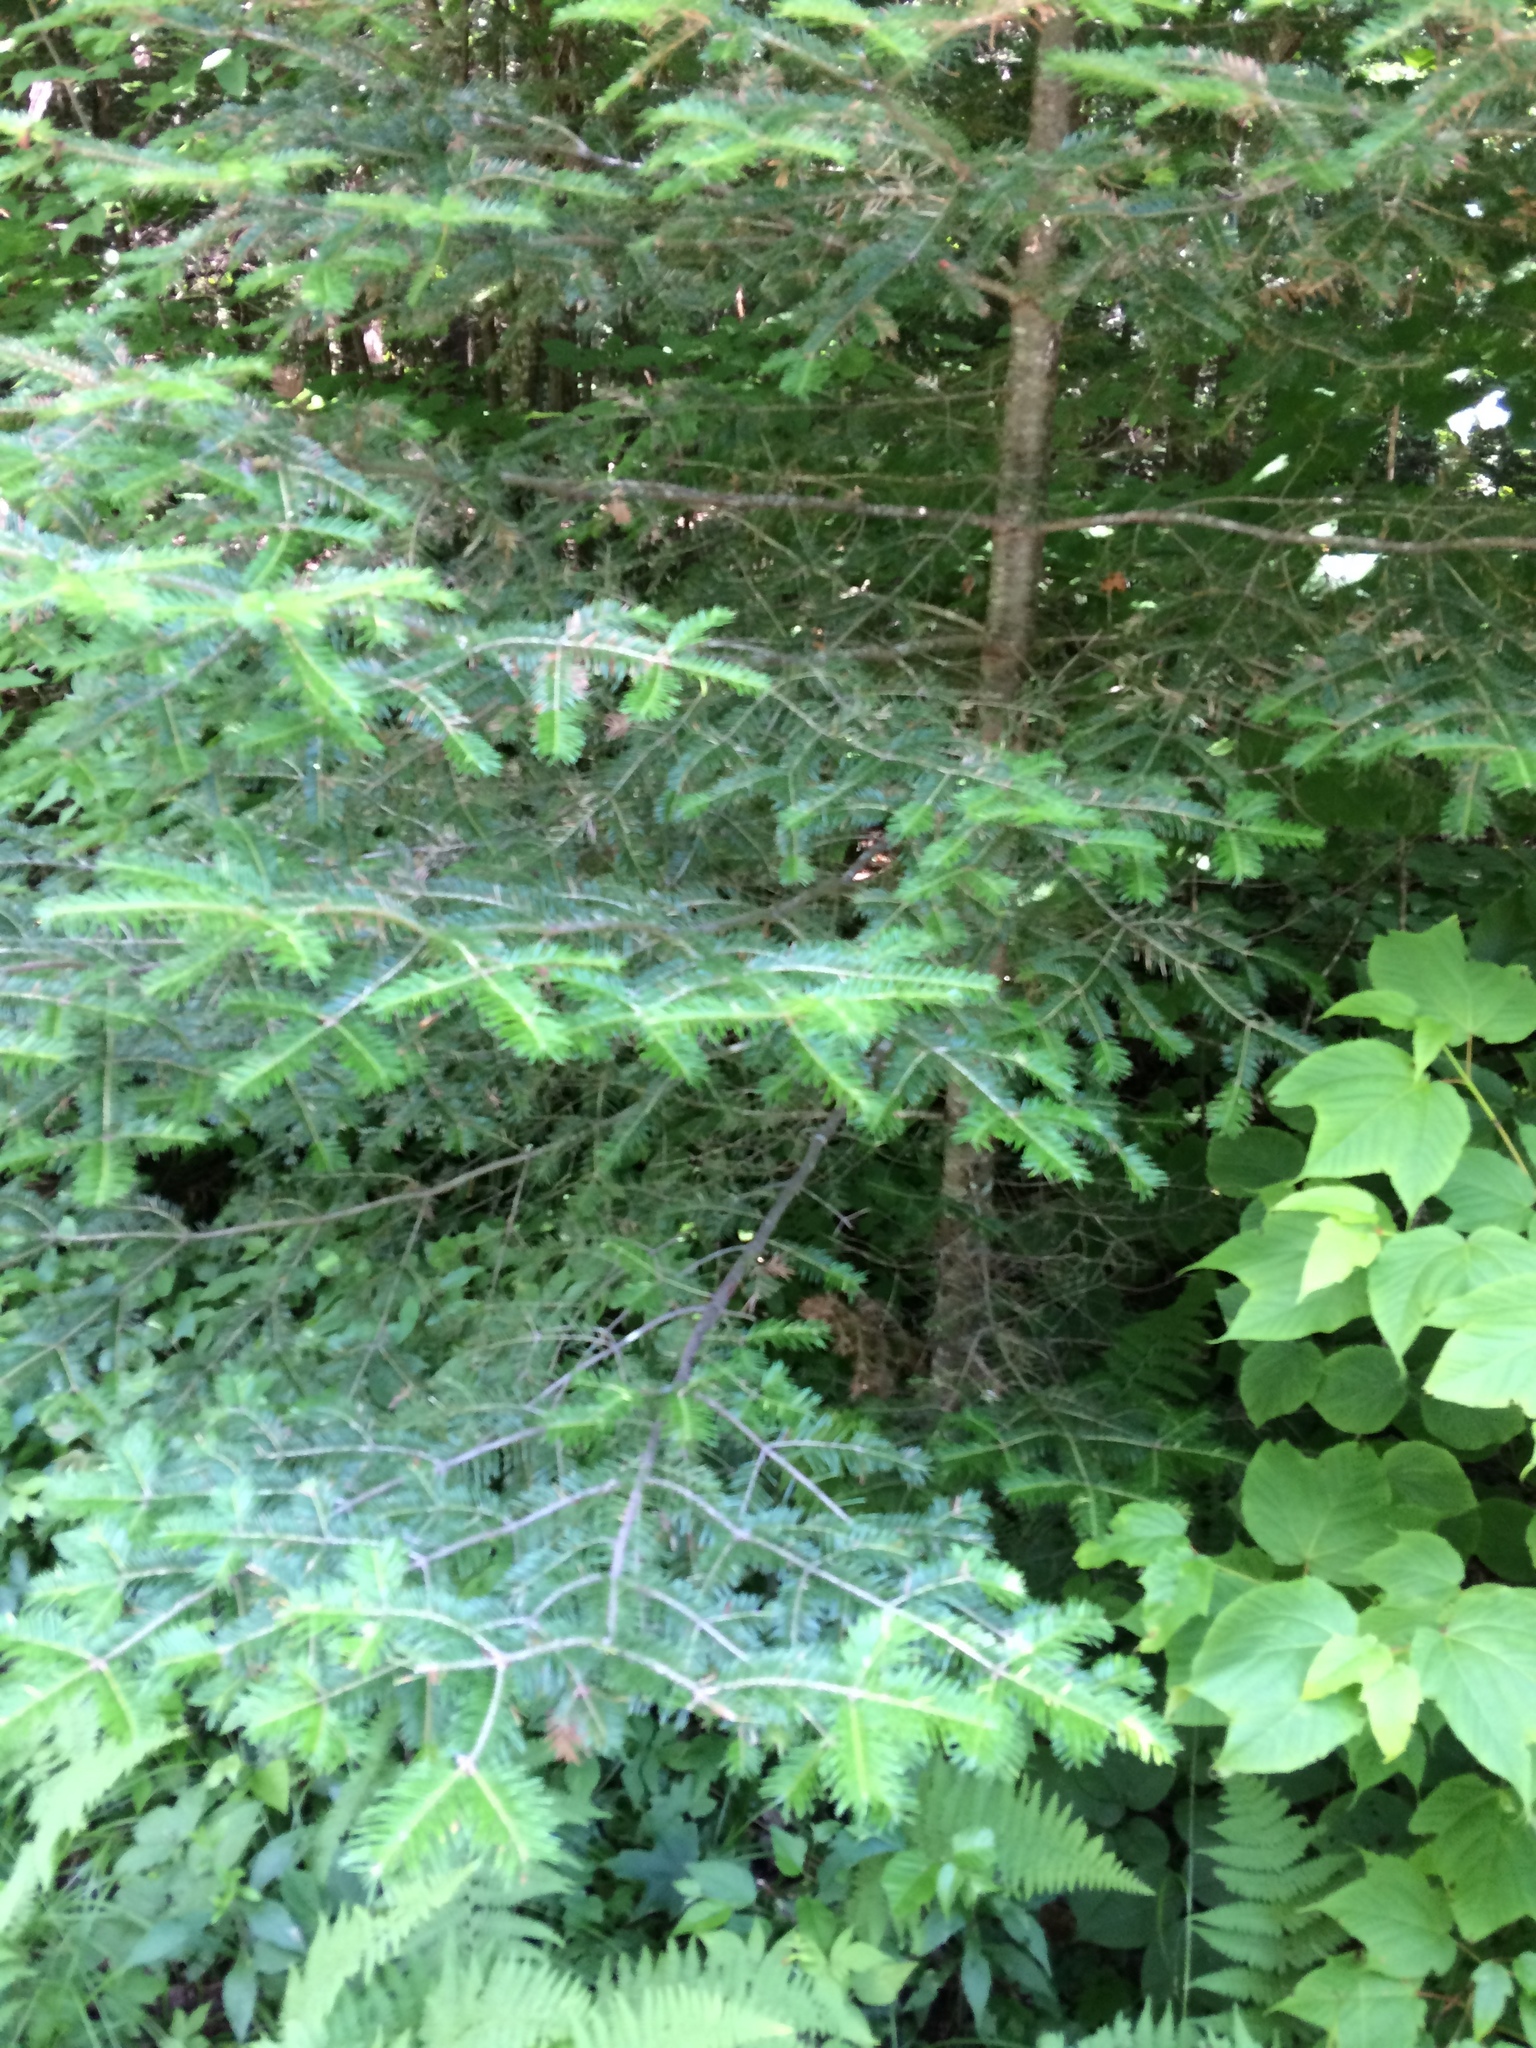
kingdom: Plantae
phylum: Tracheophyta
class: Pinopsida
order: Pinales
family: Pinaceae
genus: Abies
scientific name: Abies balsamea
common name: Balsam fir
